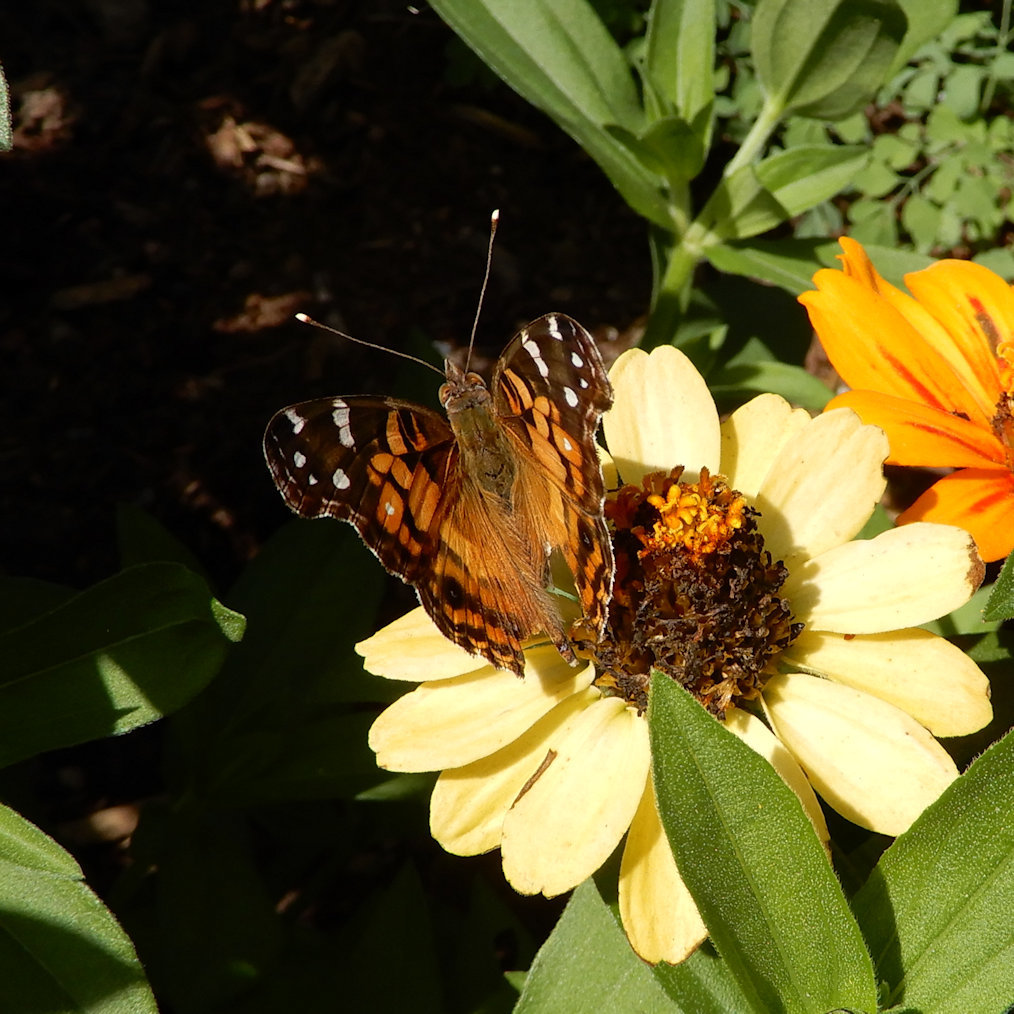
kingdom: Animalia
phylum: Arthropoda
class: Insecta
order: Lepidoptera
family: Nymphalidae
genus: Vanessa
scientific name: Vanessa virginiensis
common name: American lady
